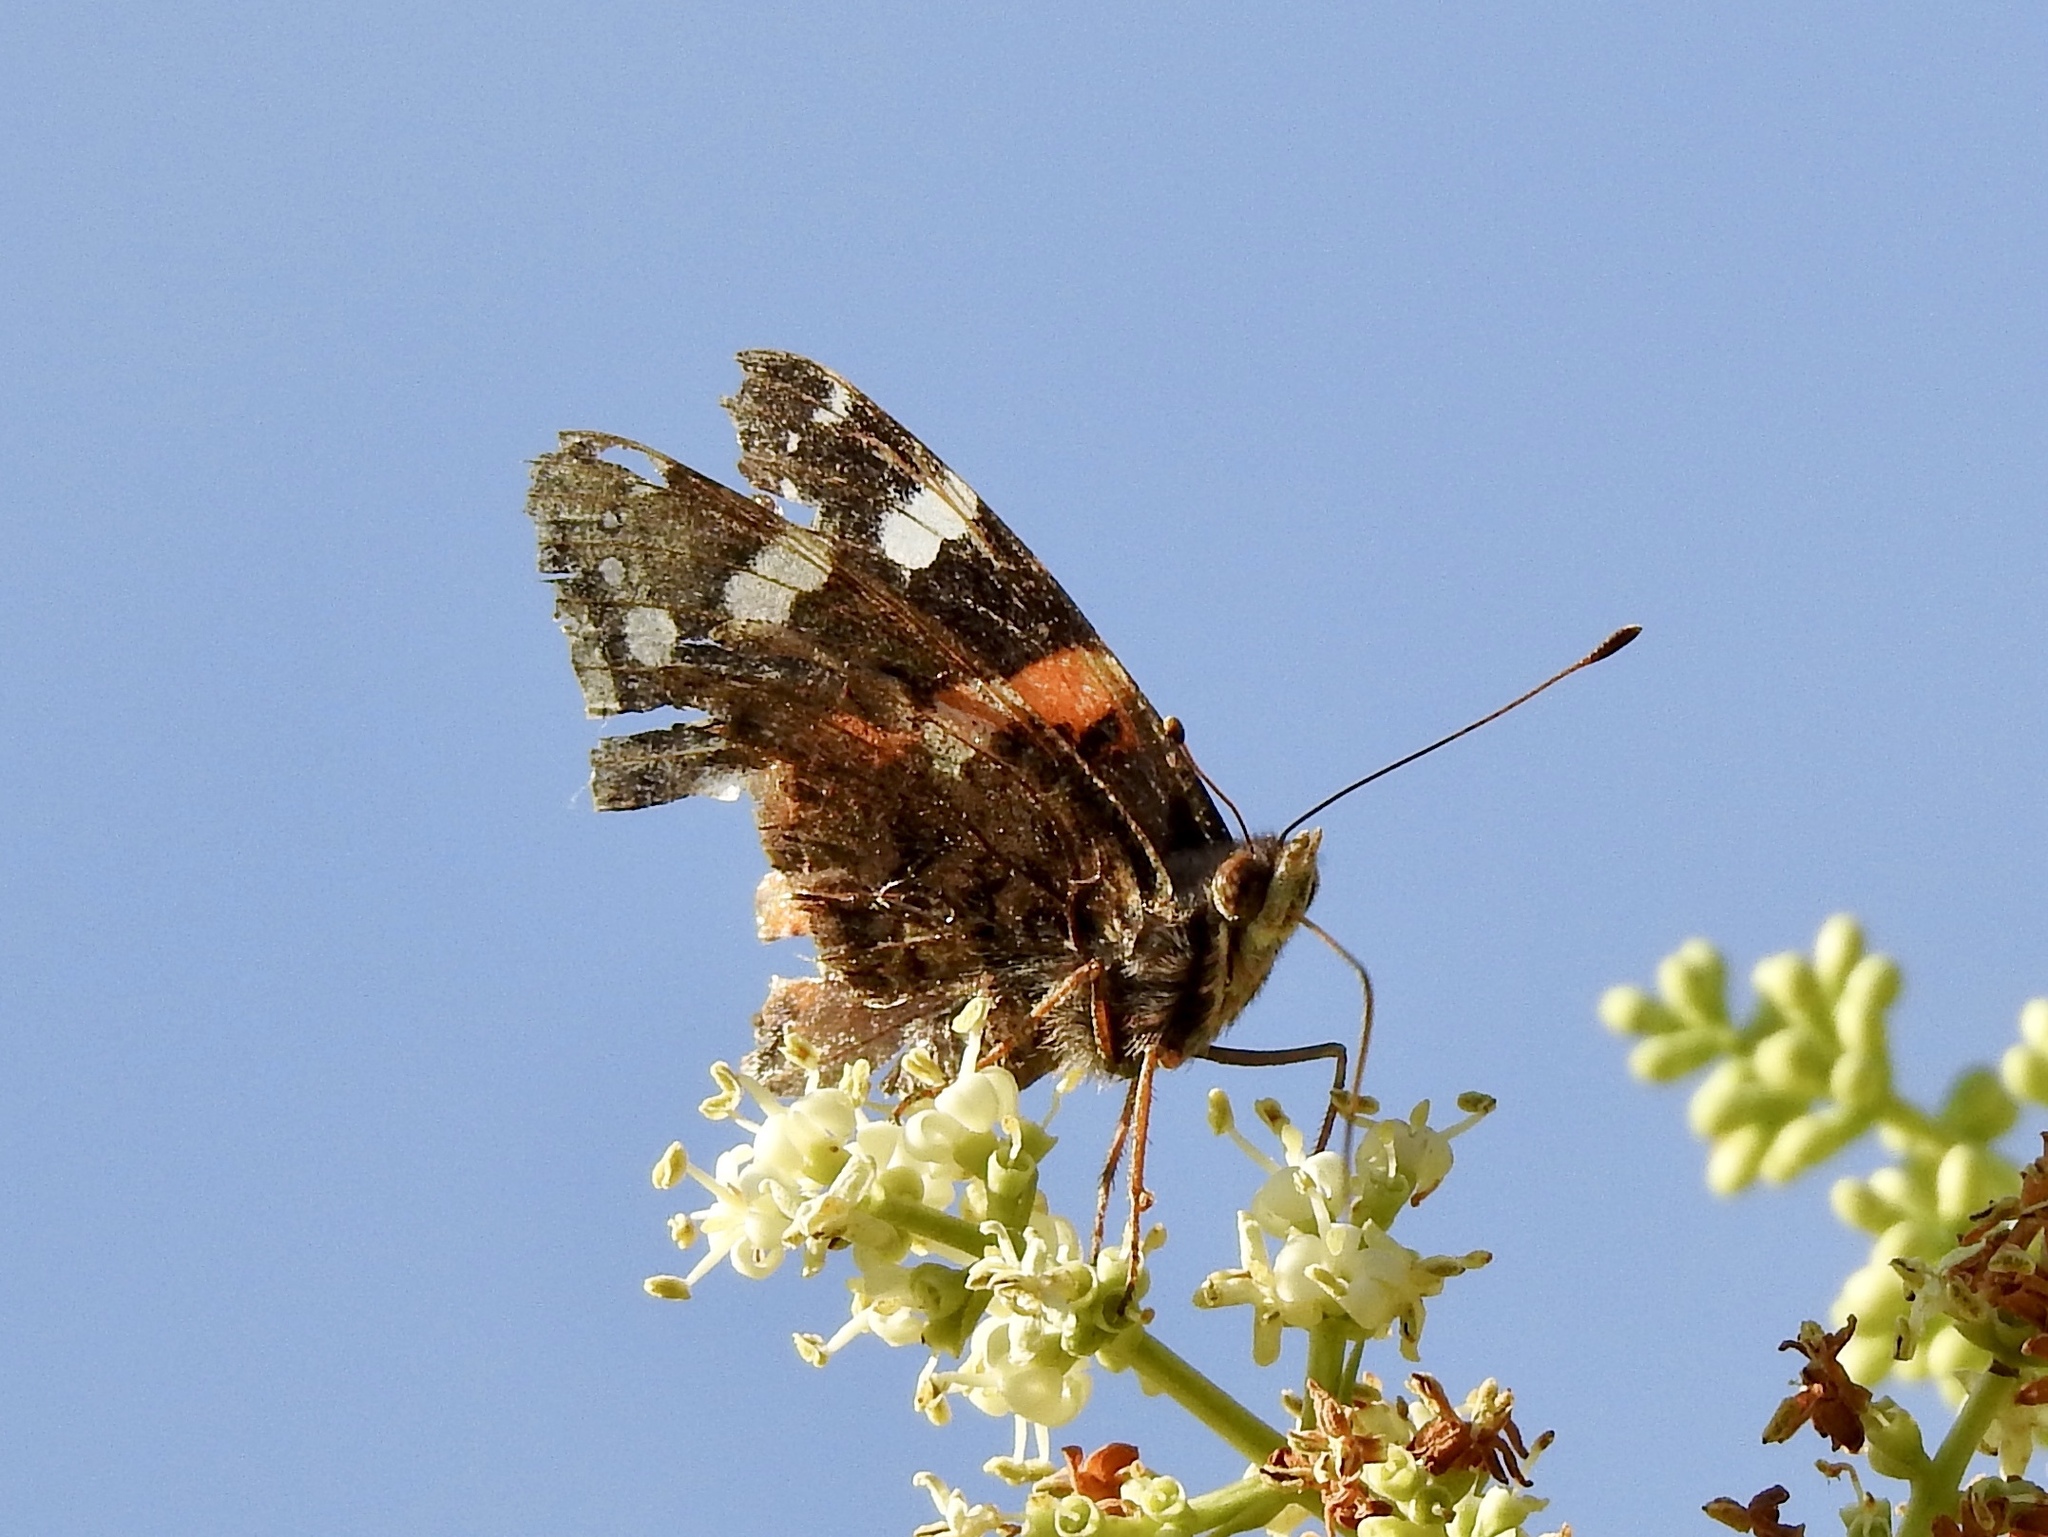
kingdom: Animalia
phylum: Arthropoda
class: Insecta
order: Lepidoptera
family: Nymphalidae
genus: Vanessa
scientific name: Vanessa atalanta
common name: Red admiral
